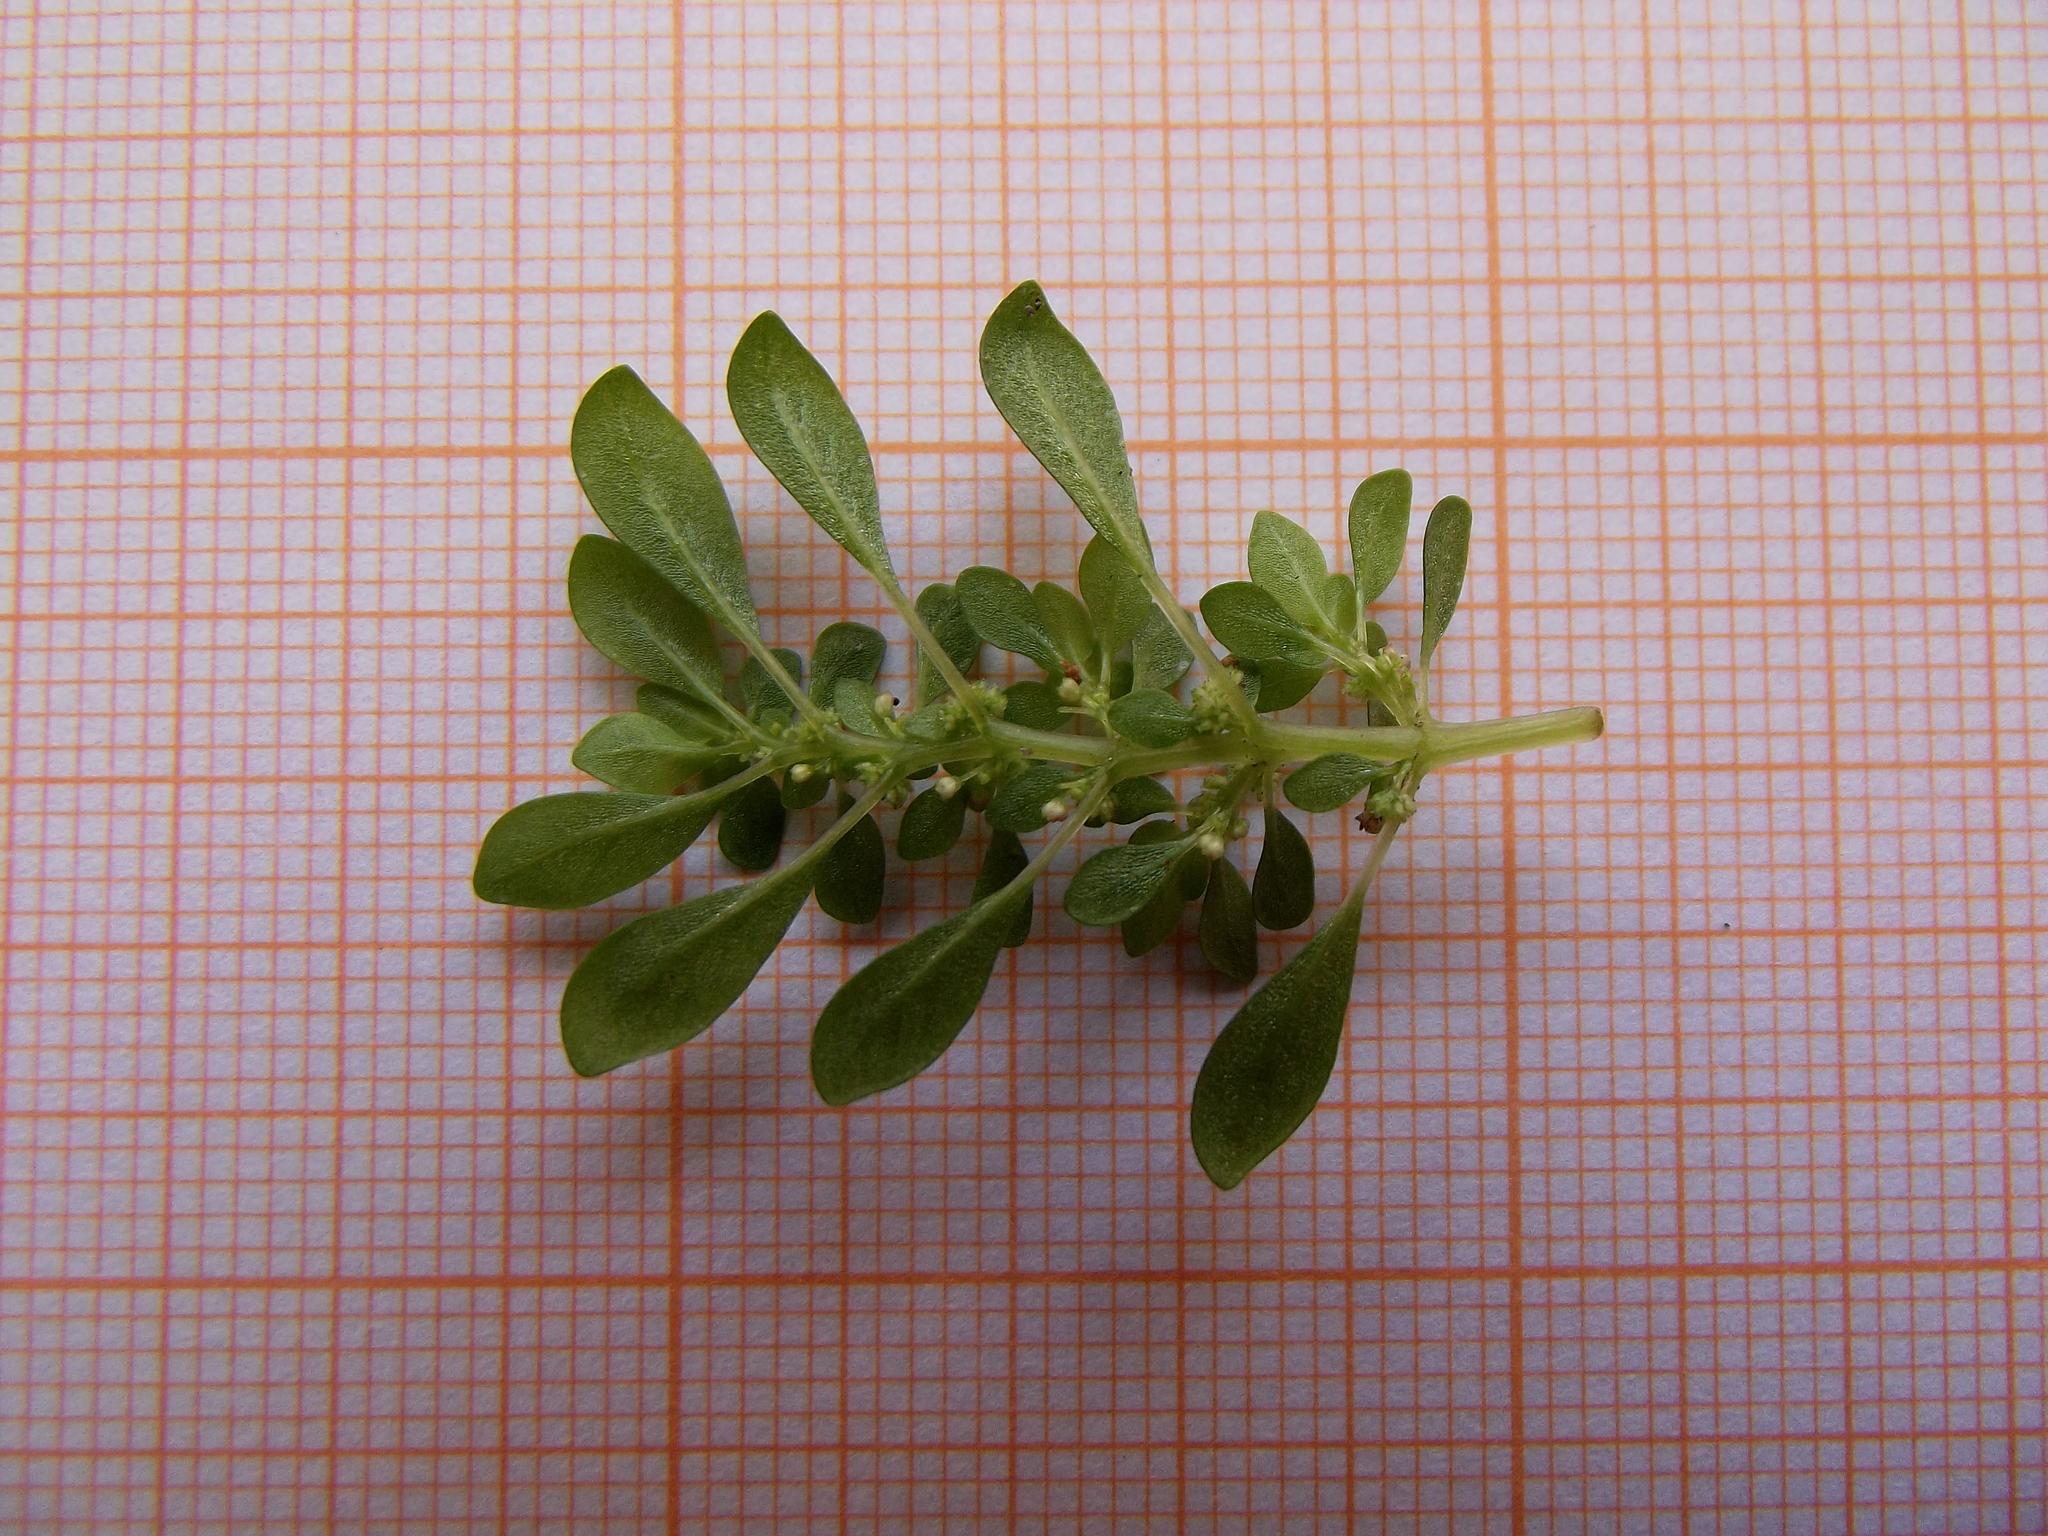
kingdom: Plantae
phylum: Tracheophyta
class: Magnoliopsida
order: Rosales
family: Urticaceae
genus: Pilea
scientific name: Pilea microphylla
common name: Artillery-plant
